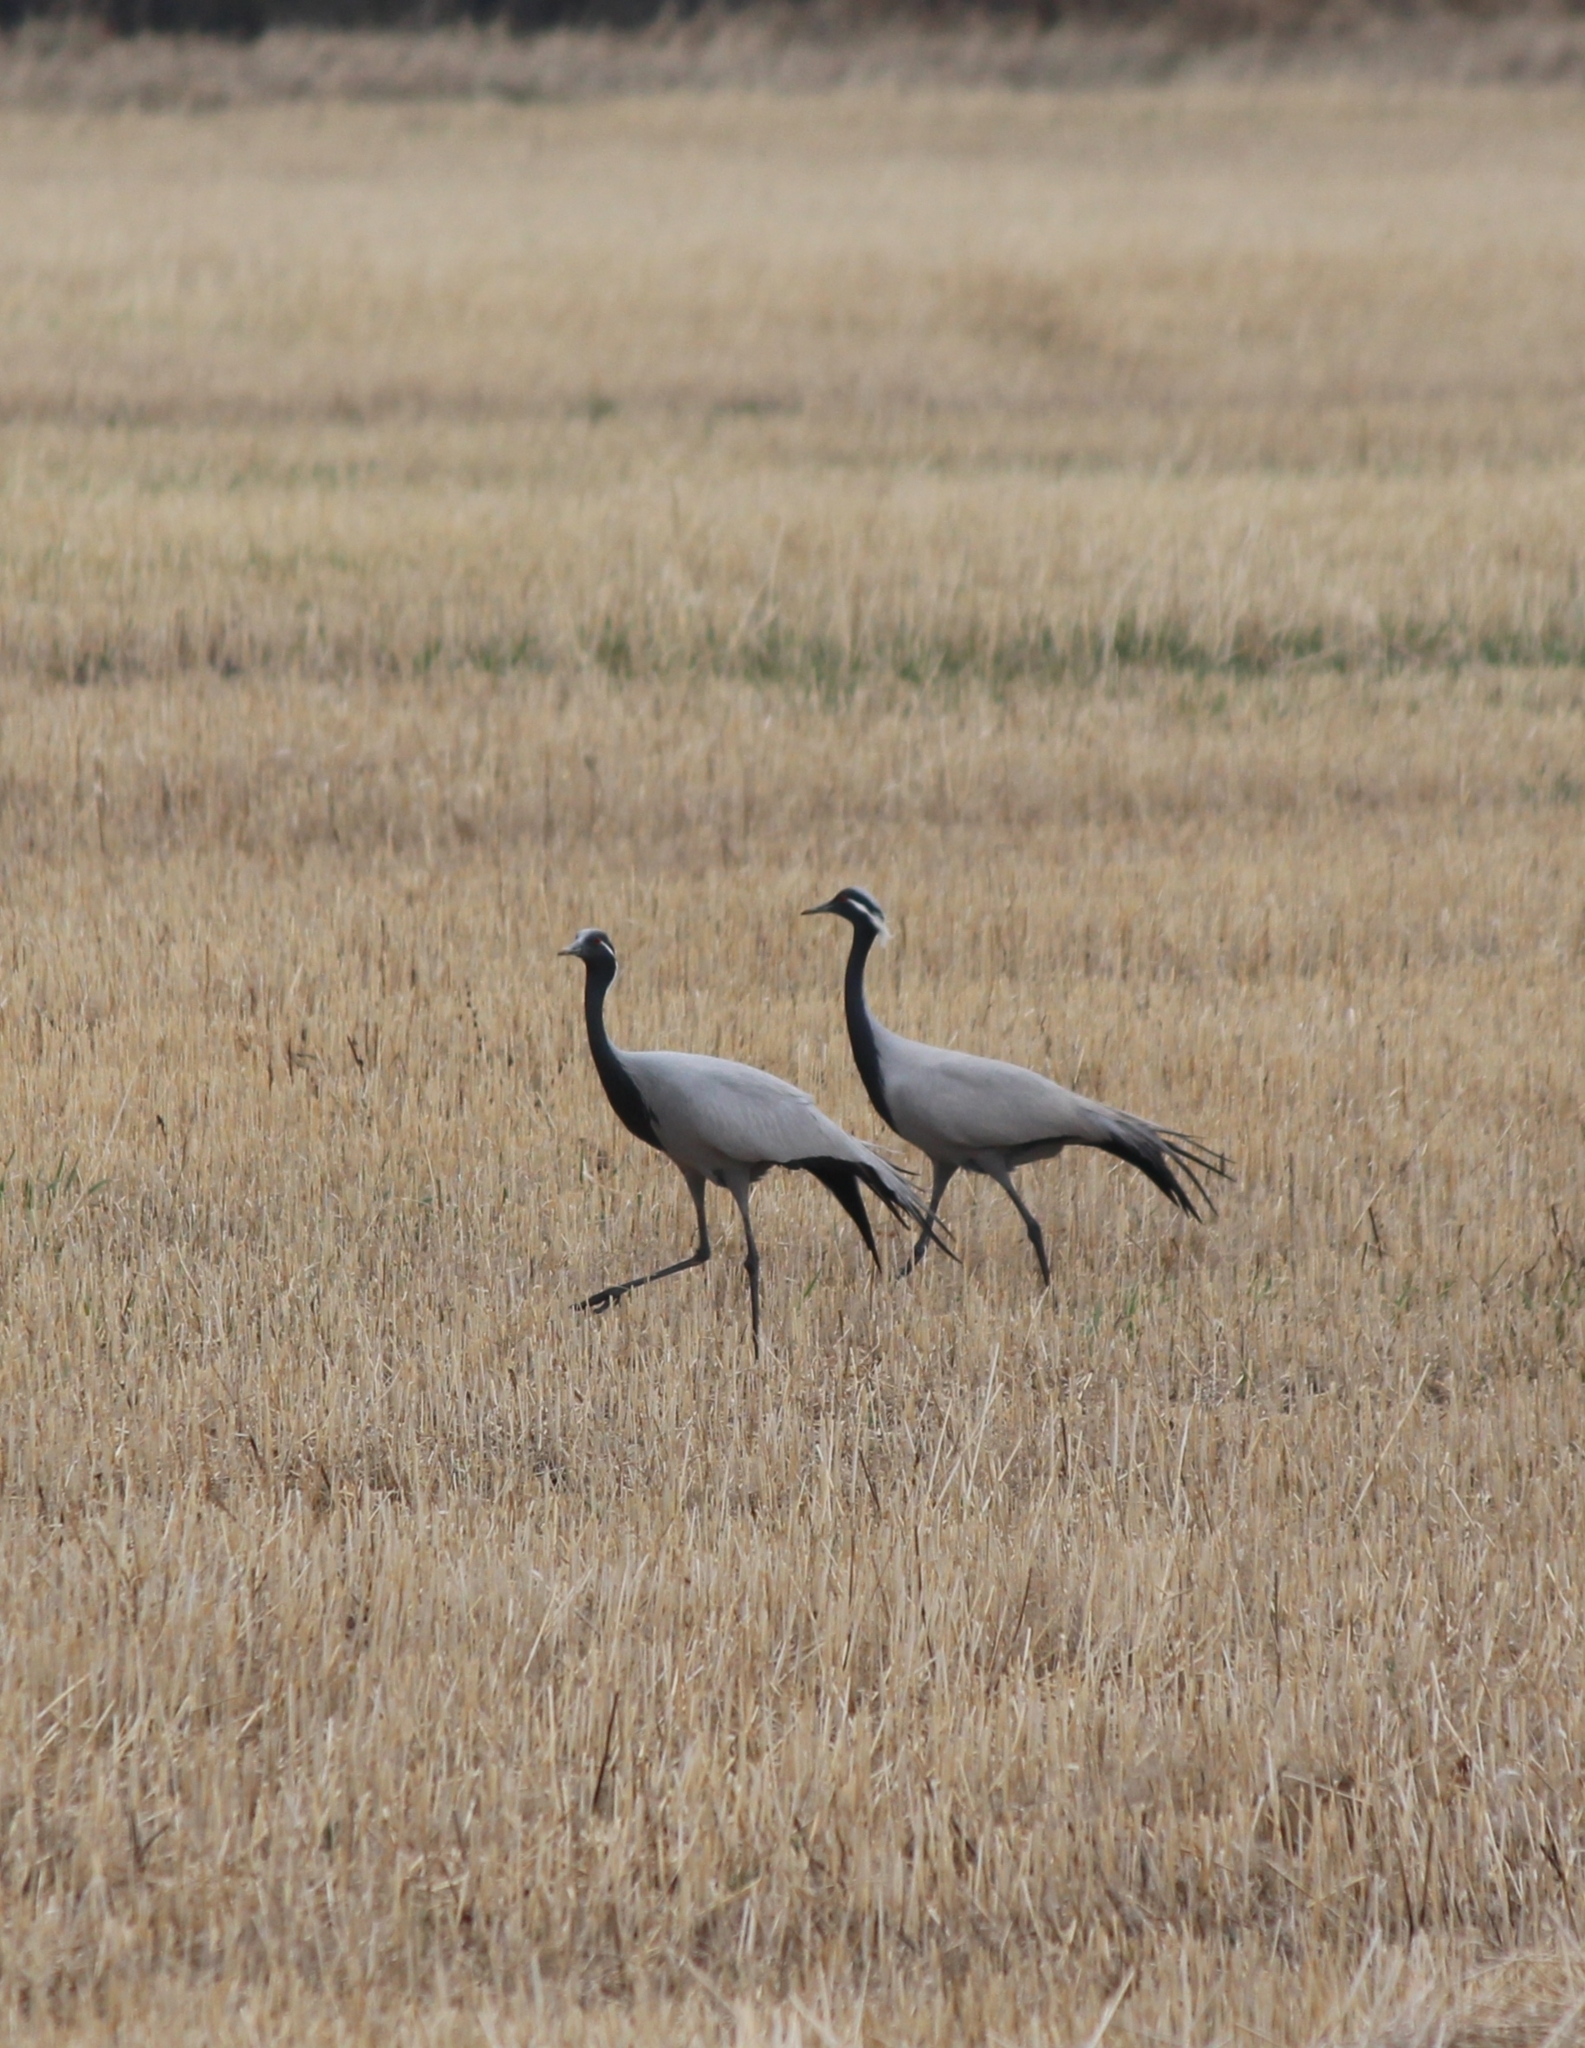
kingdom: Animalia
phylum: Chordata
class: Aves
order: Gruiformes
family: Gruidae
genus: Anthropoides
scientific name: Anthropoides virgo
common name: Demoiselle crane
